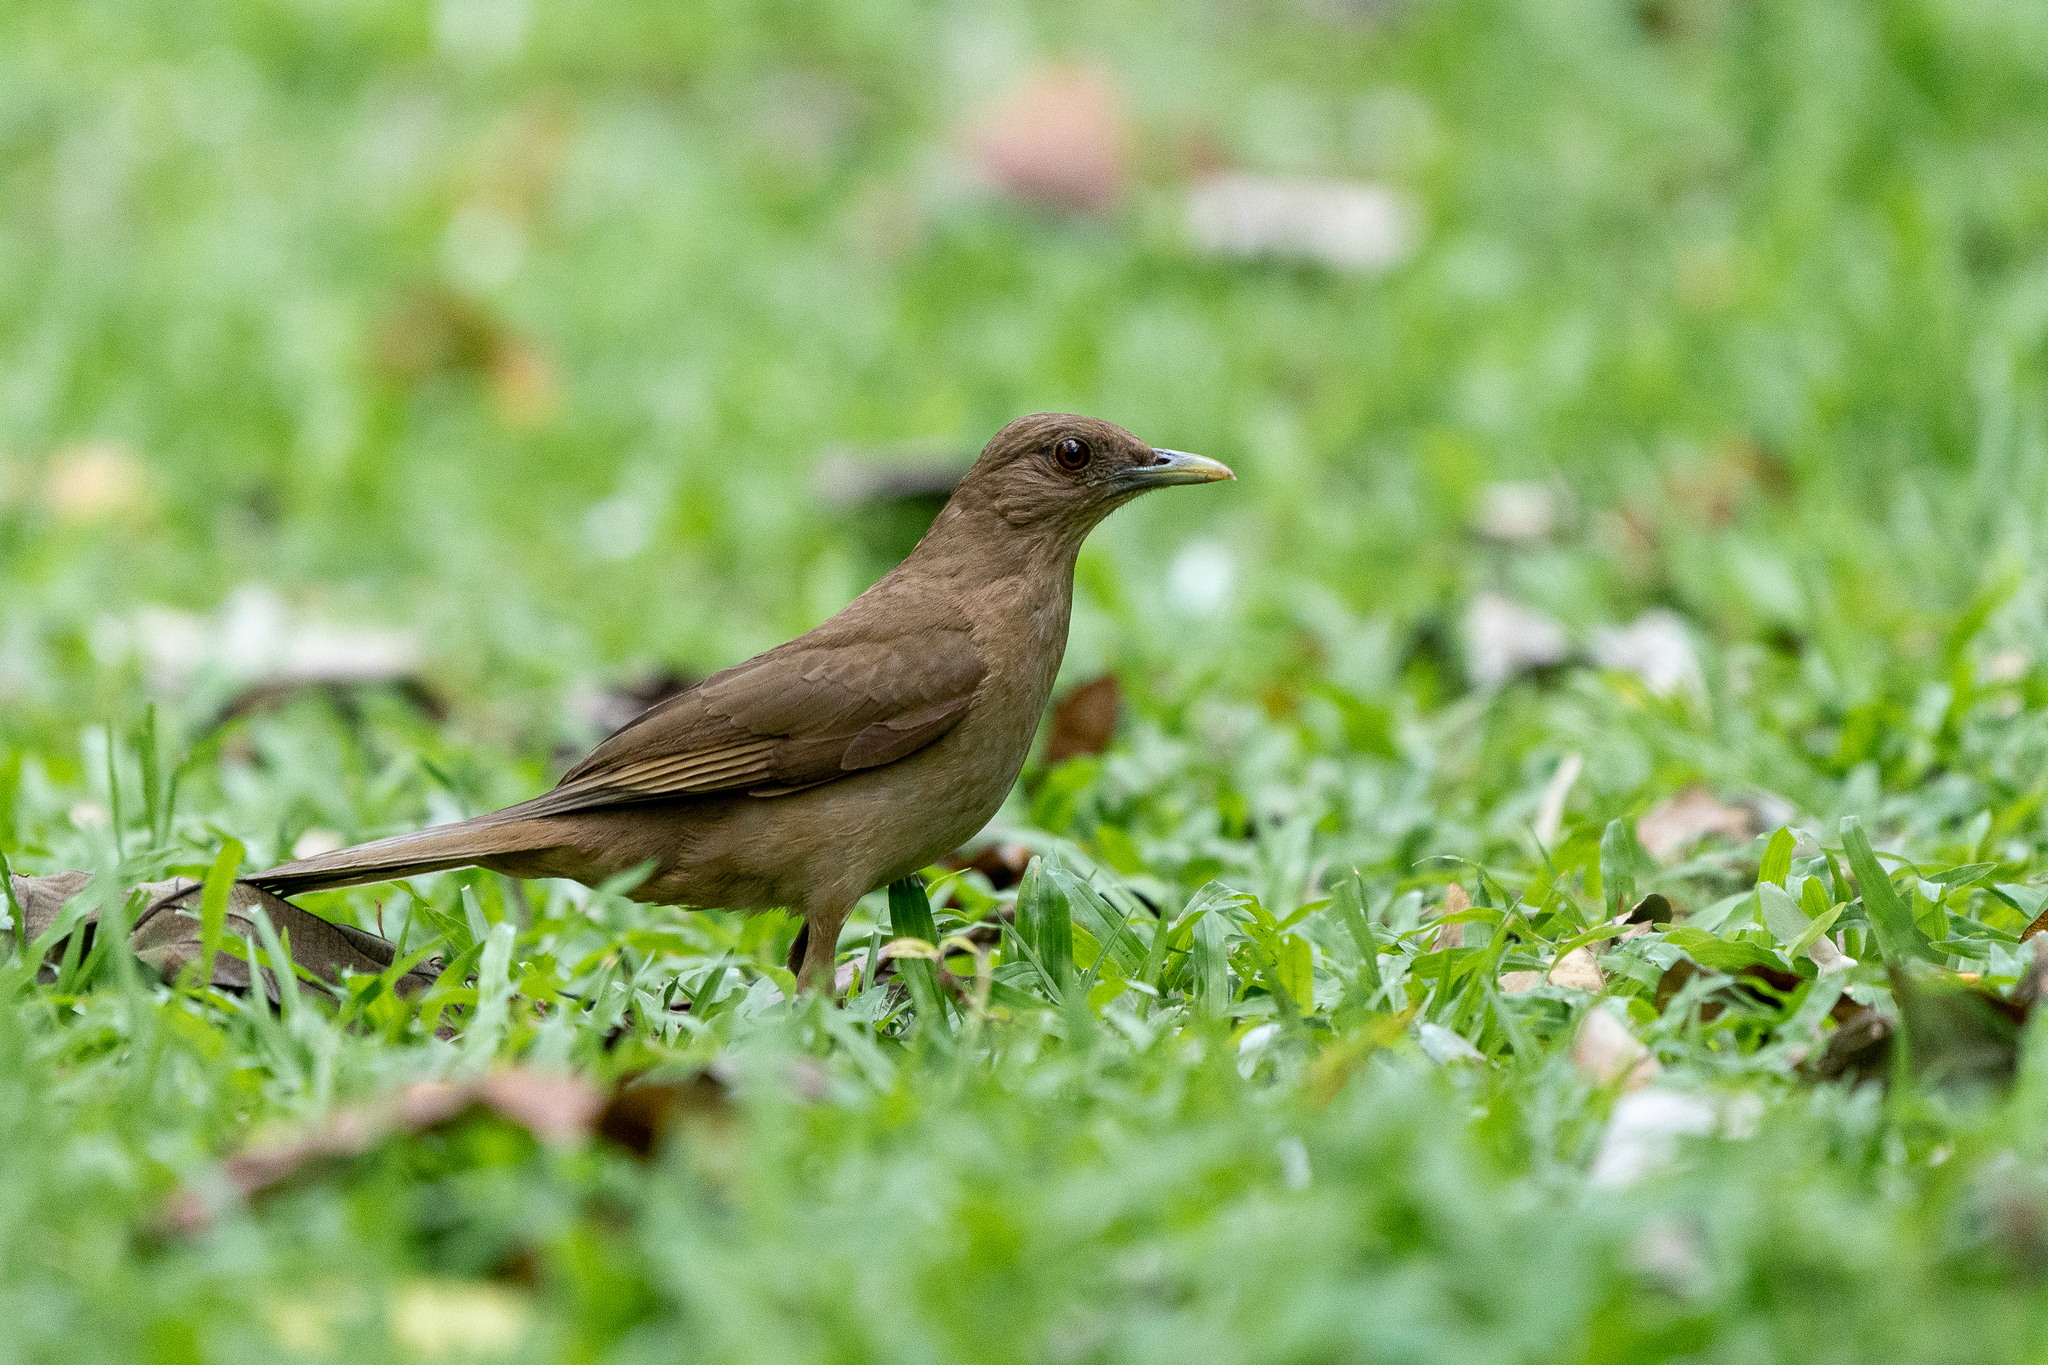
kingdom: Animalia
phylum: Chordata
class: Aves
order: Passeriformes
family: Turdidae
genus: Turdus
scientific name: Turdus grayi
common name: Clay-colored thrush
